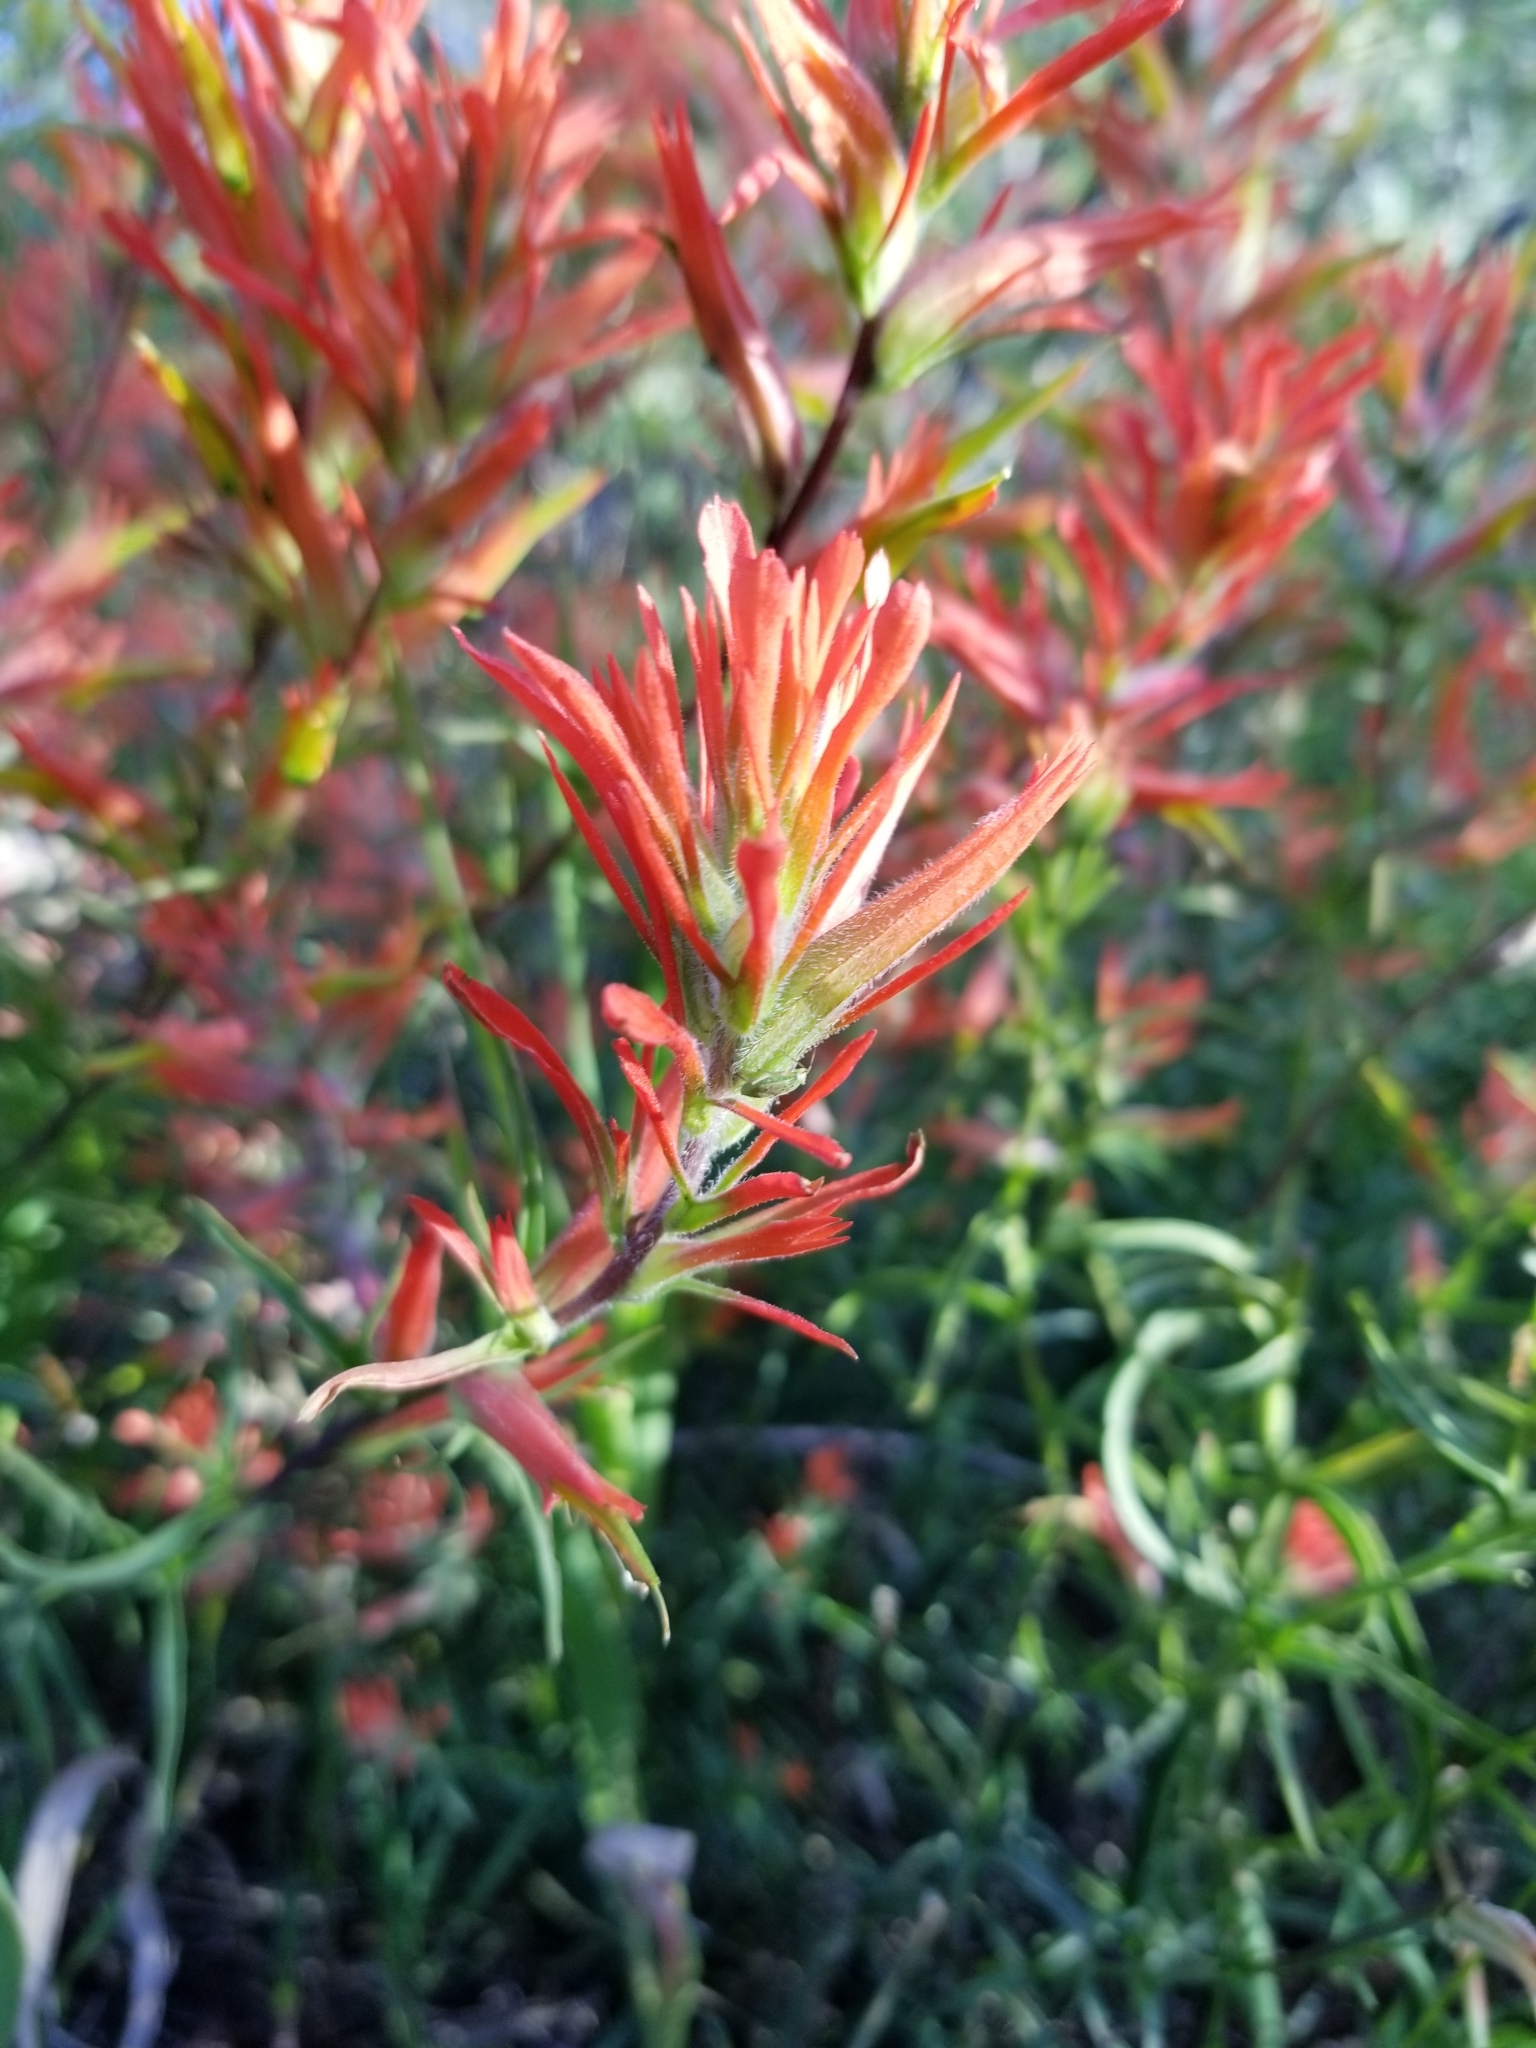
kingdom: Plantae
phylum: Tracheophyta
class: Magnoliopsida
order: Lamiales
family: Orobanchaceae
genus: Castilleja
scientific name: Castilleja linariifolia
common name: Wyoming paintbrush
